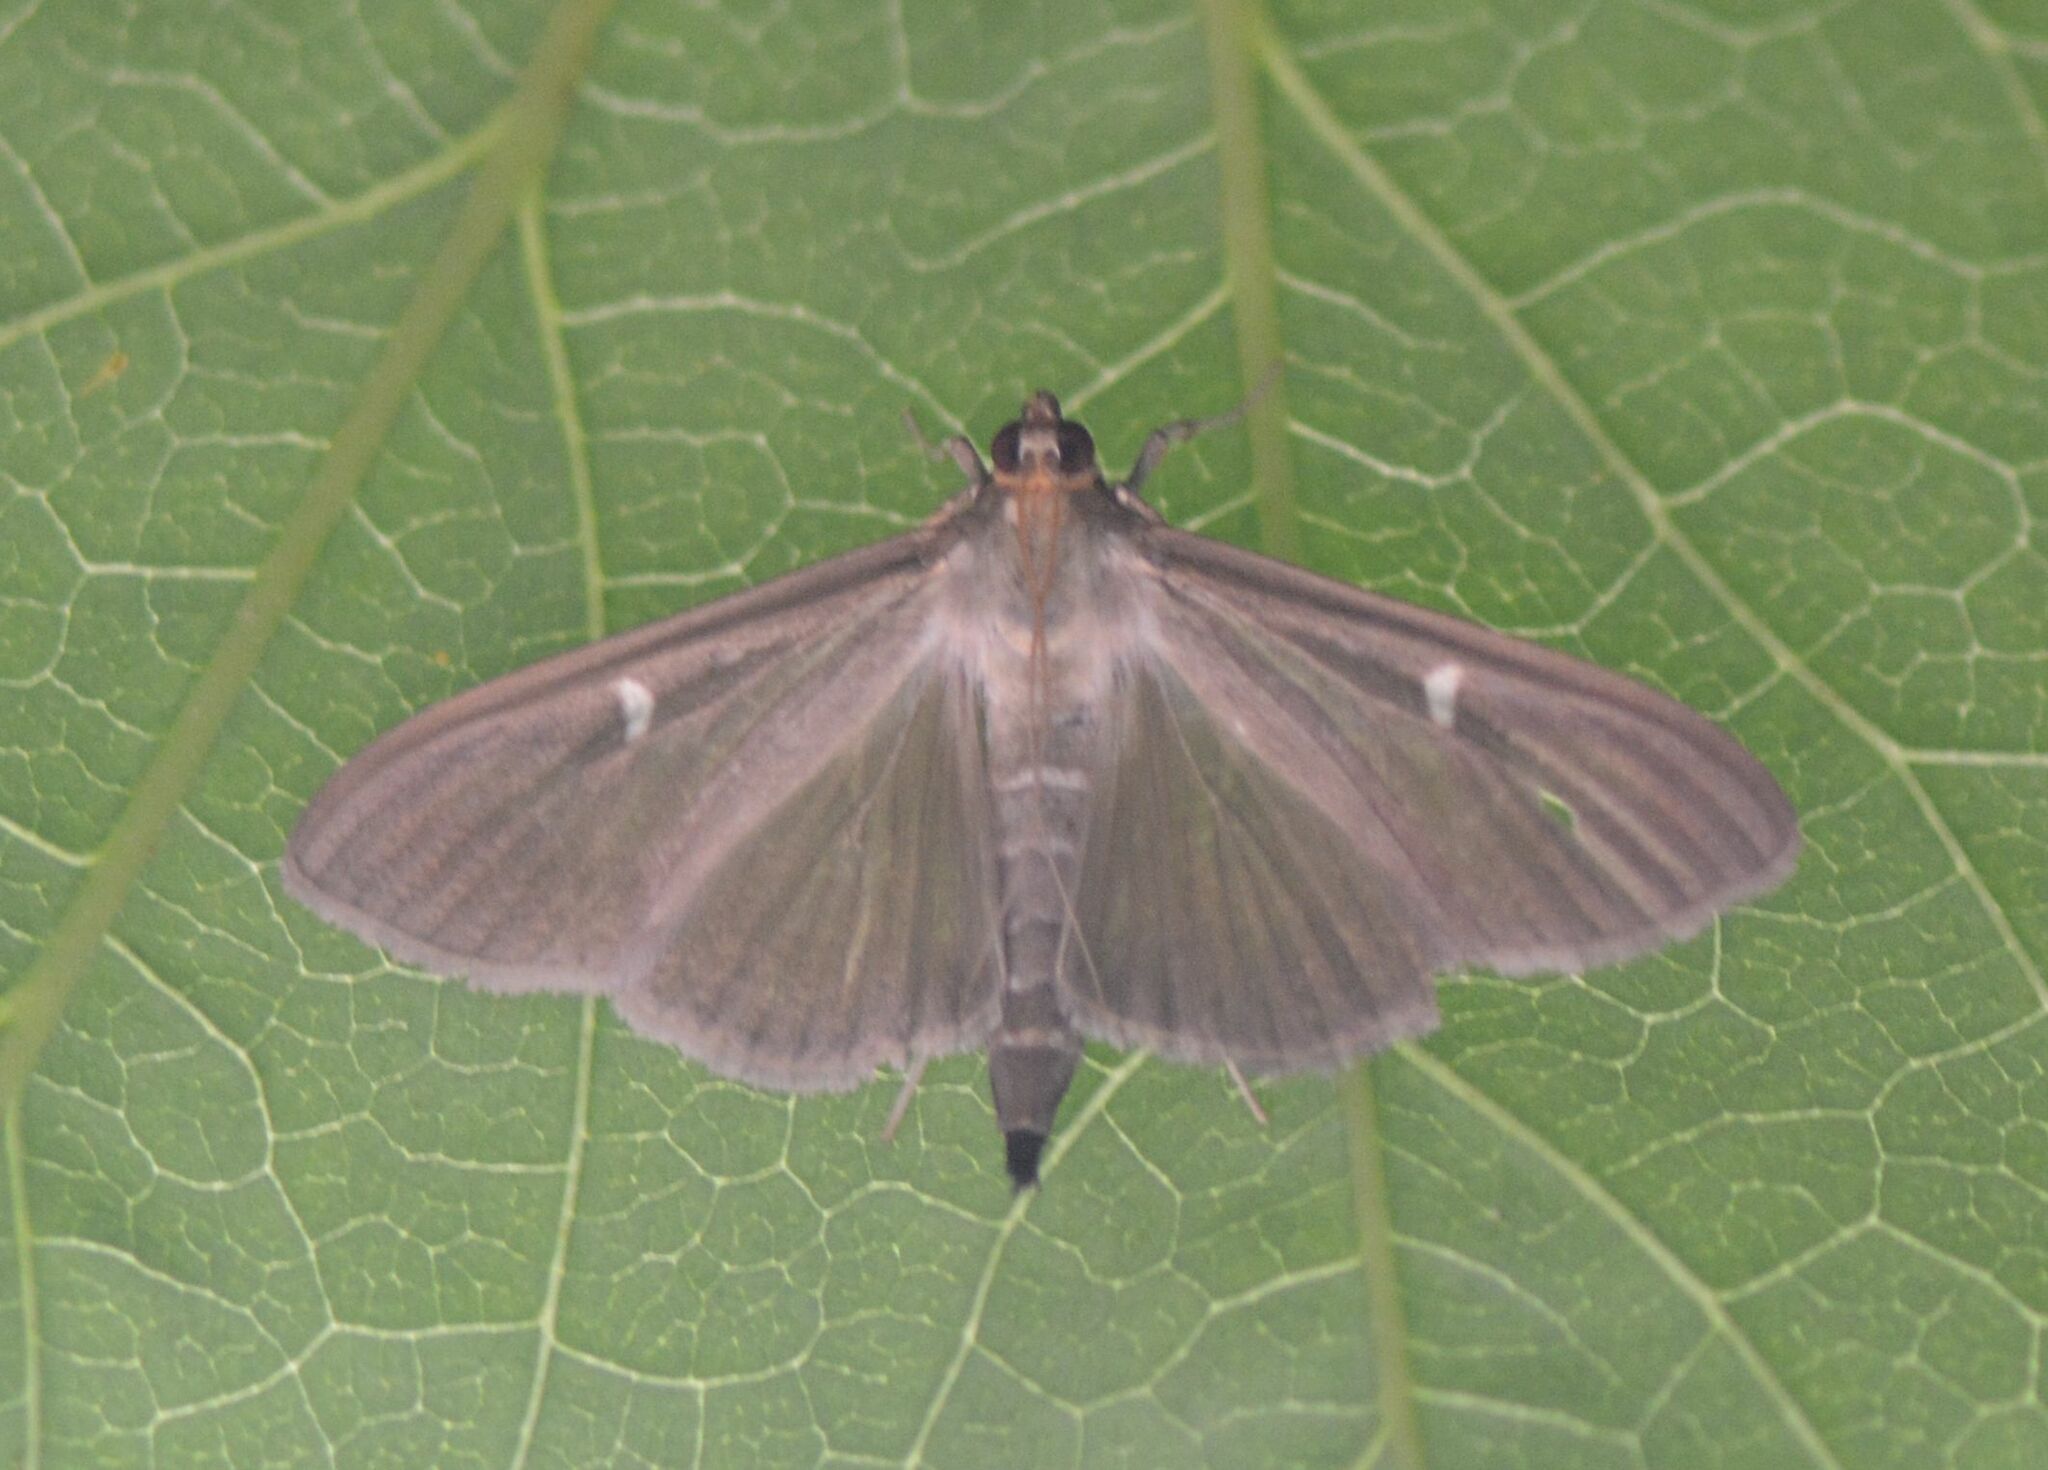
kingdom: Animalia
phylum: Arthropoda
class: Insecta
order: Lepidoptera
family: Crambidae
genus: Cydalima
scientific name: Cydalima perspectalis
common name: Box tree moth
